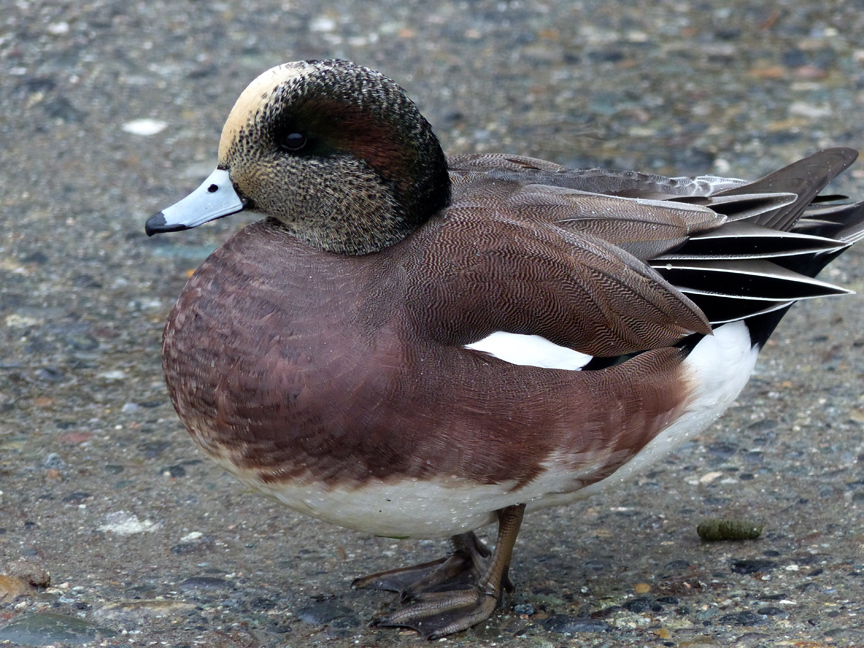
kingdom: Animalia
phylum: Chordata
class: Aves
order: Anseriformes
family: Anatidae
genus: Mareca
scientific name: Mareca americana
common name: American wigeon
